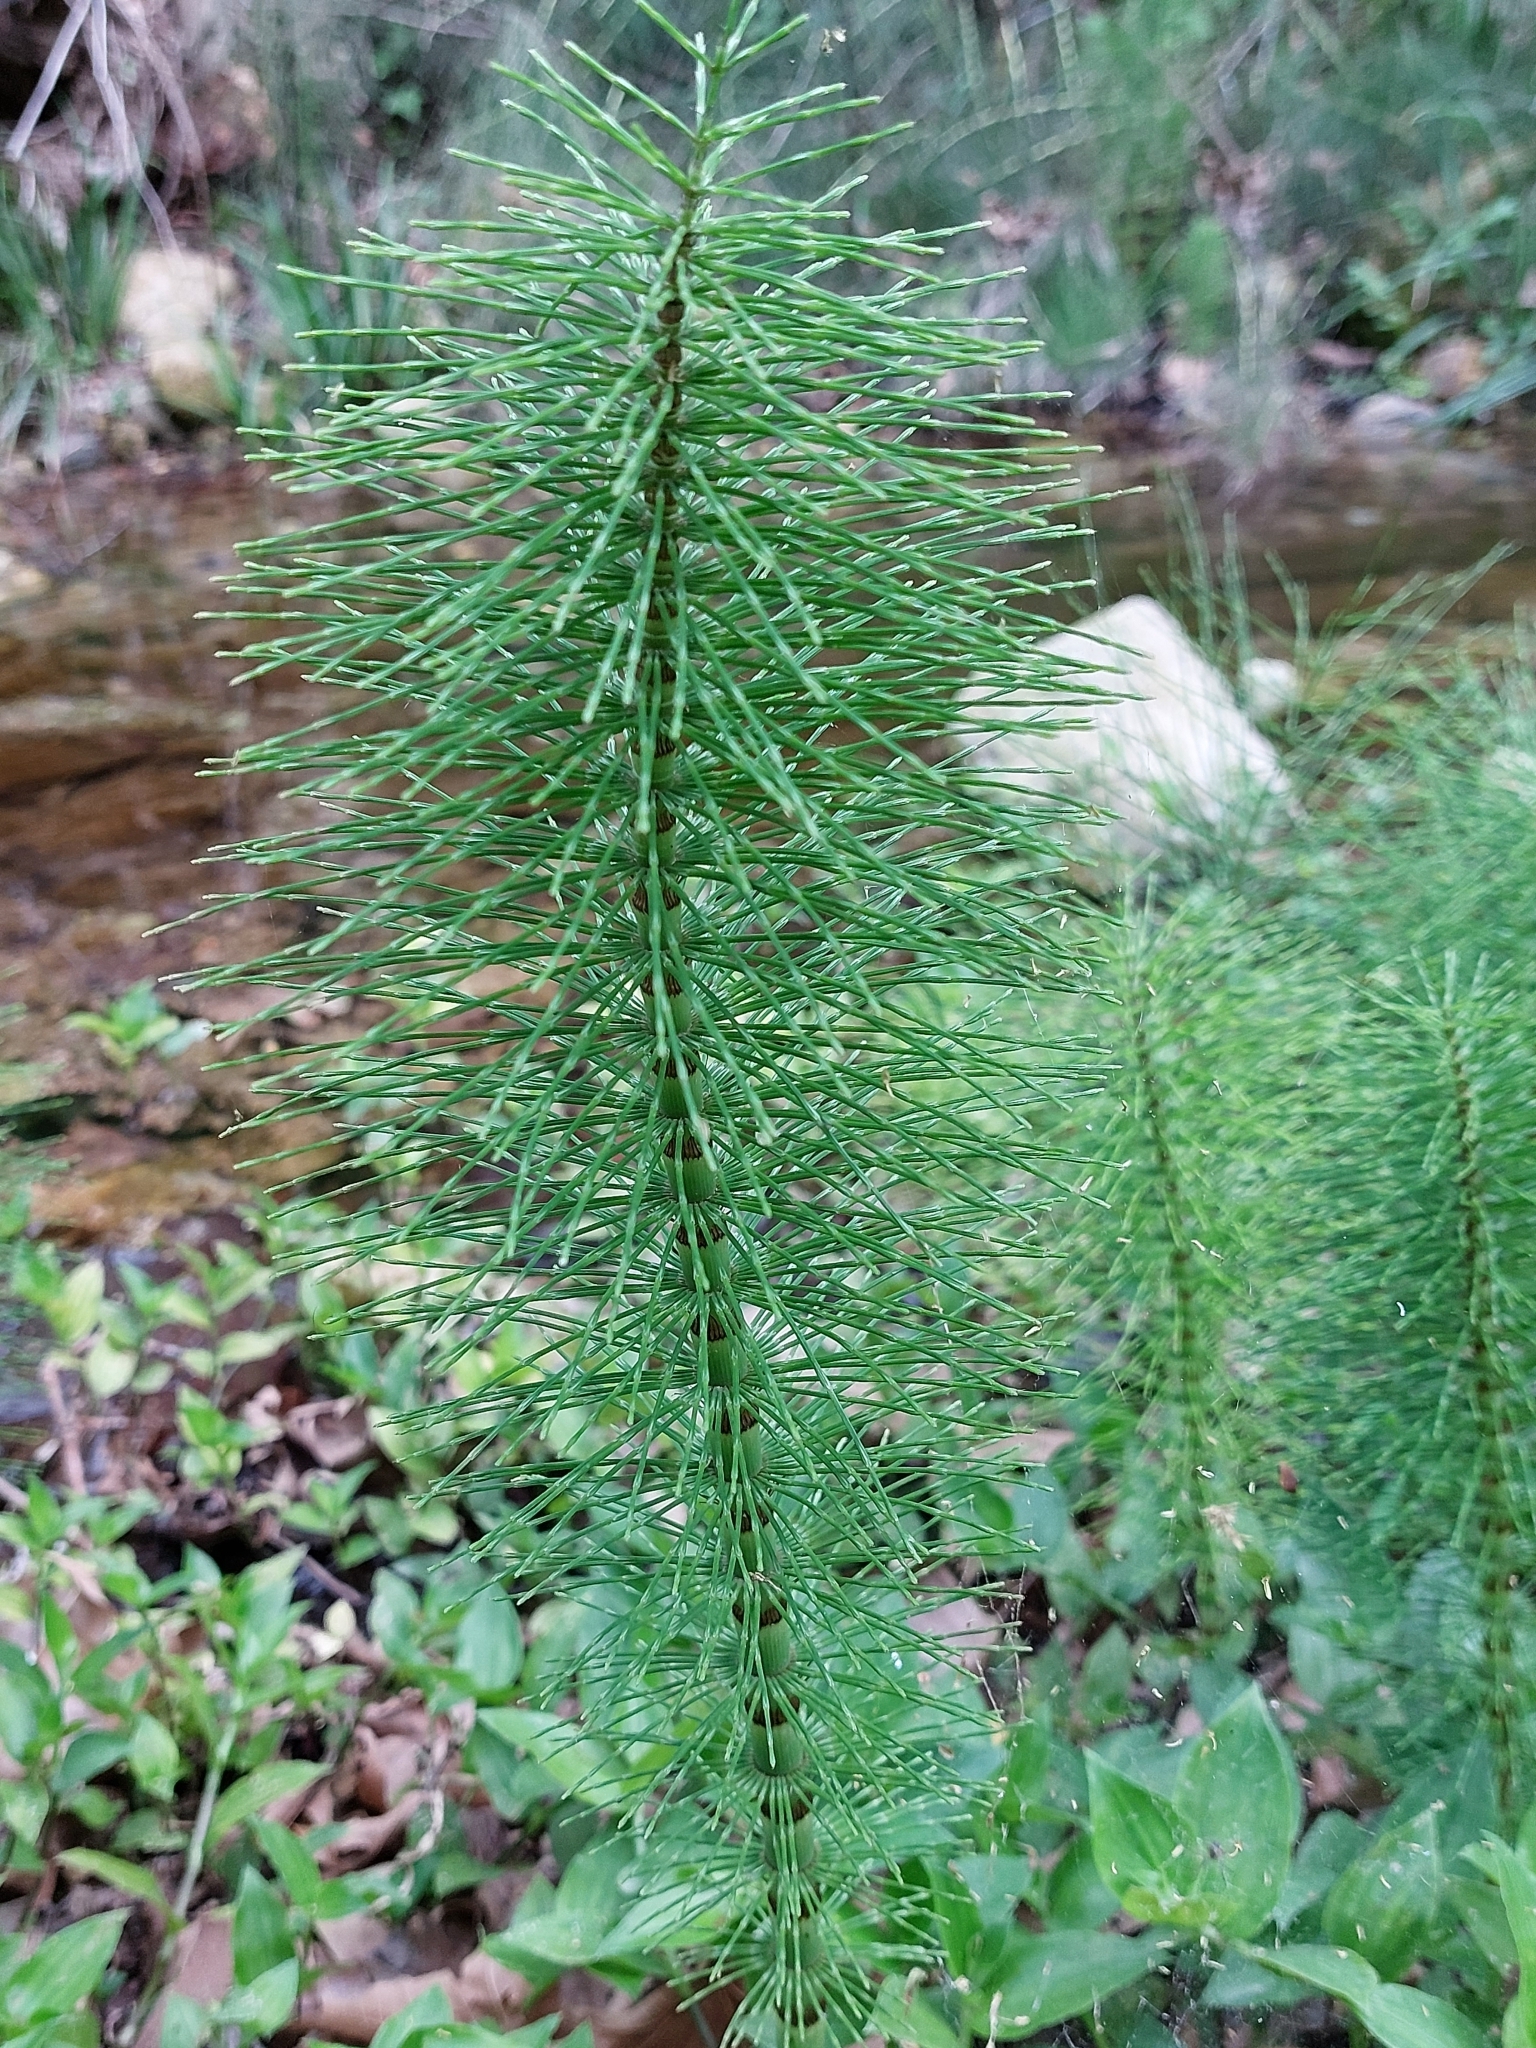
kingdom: Plantae
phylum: Tracheophyta
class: Polypodiopsida
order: Equisetales
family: Equisetaceae
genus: Equisetum
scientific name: Equisetum telmateia
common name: Great horsetail
